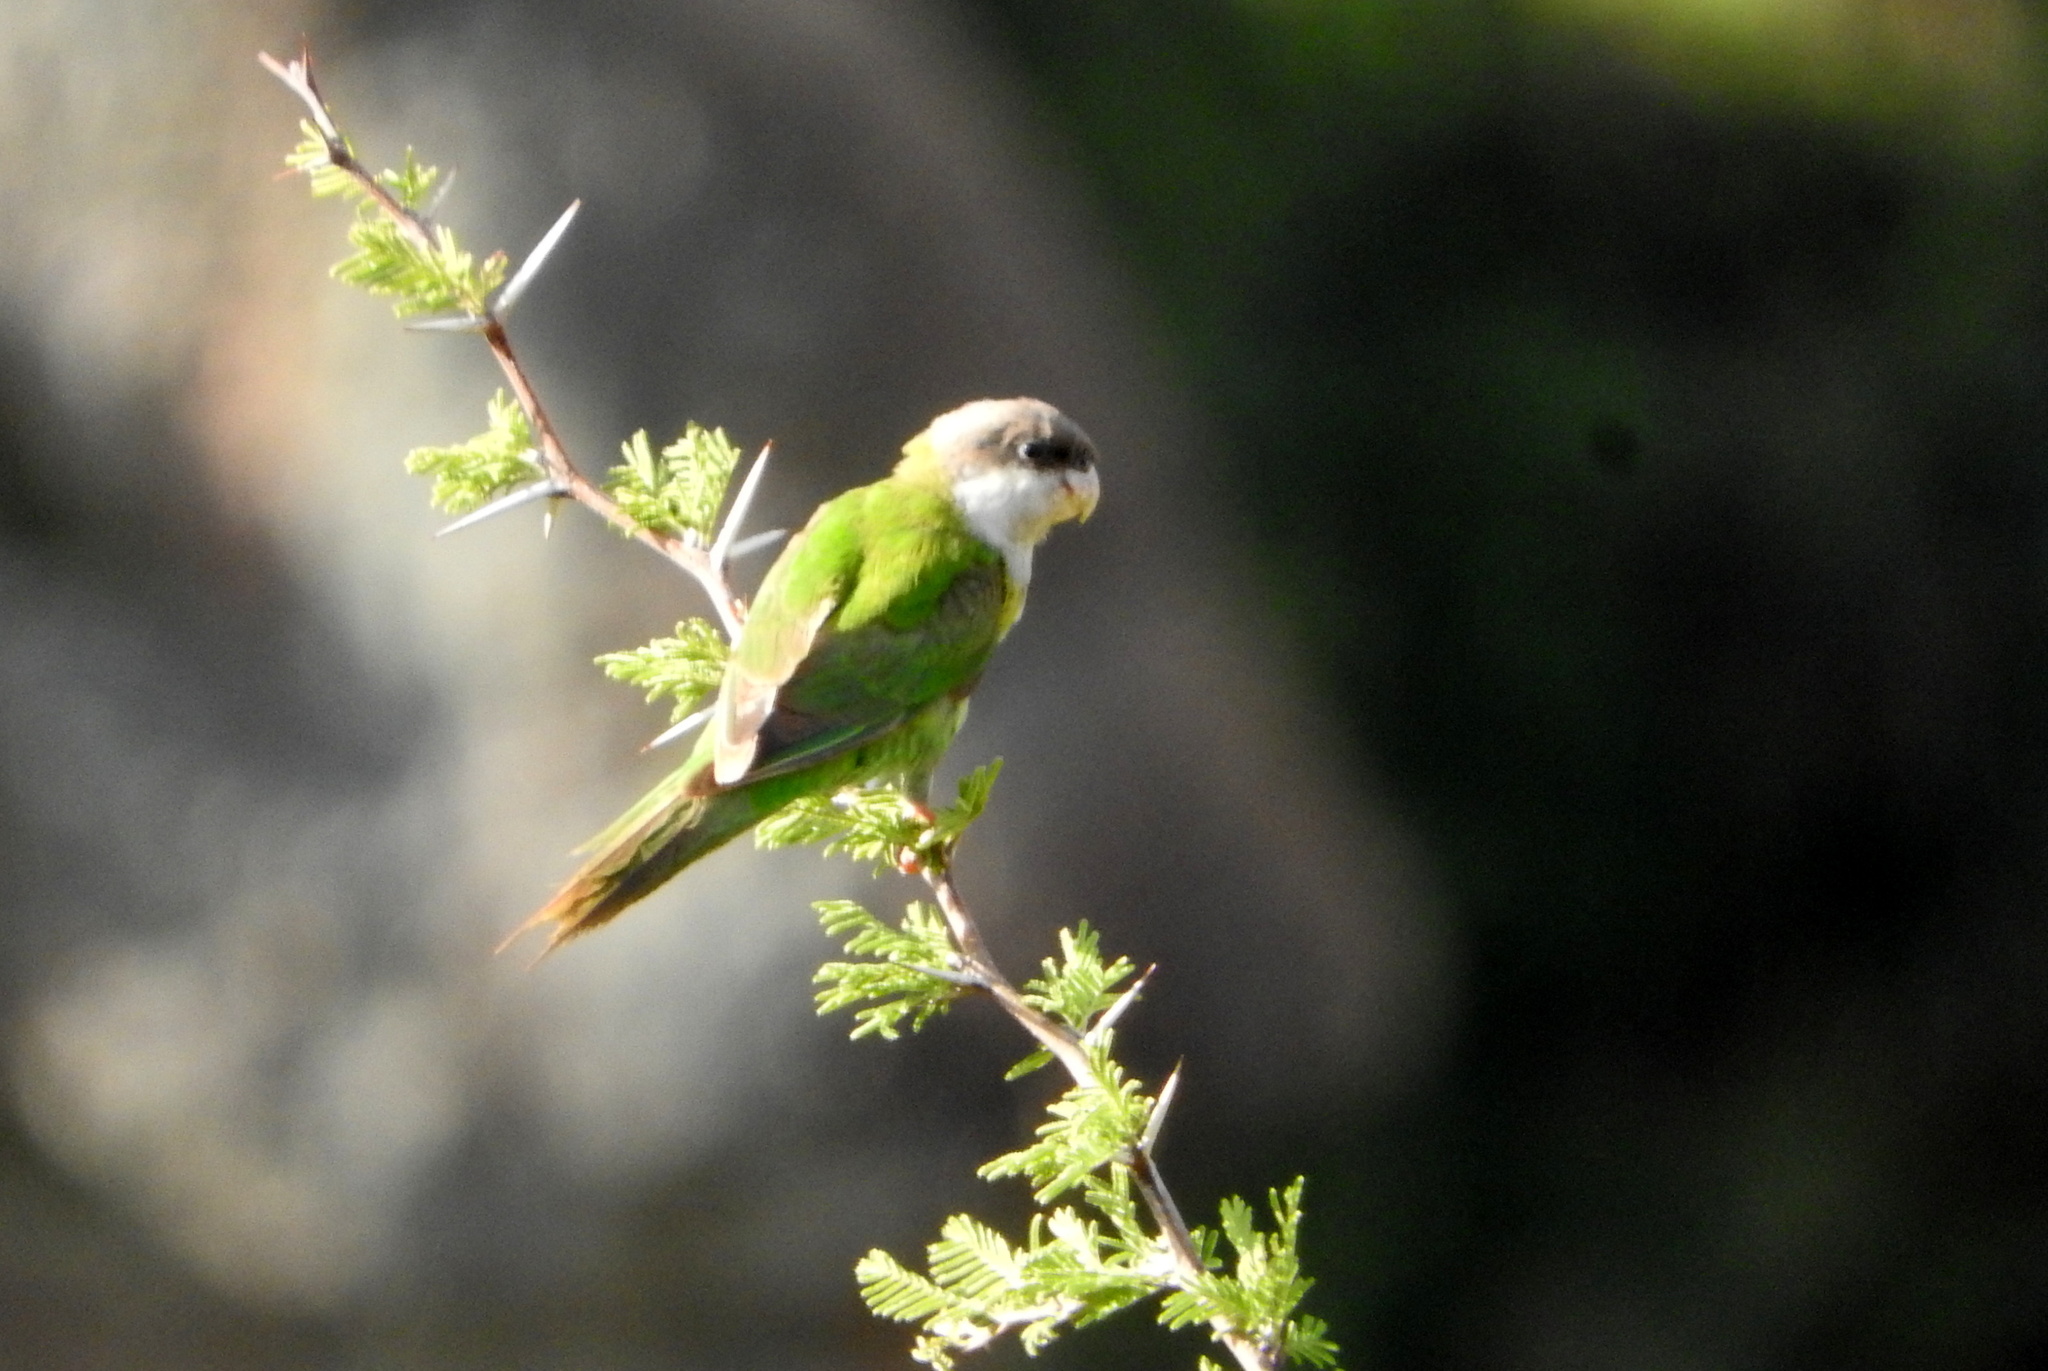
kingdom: Animalia
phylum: Chordata
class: Aves
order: Psittaciformes
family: Psittacidae
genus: Psilopsiagon
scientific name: Psilopsiagon aymara
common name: Grey-hooded parakeet
